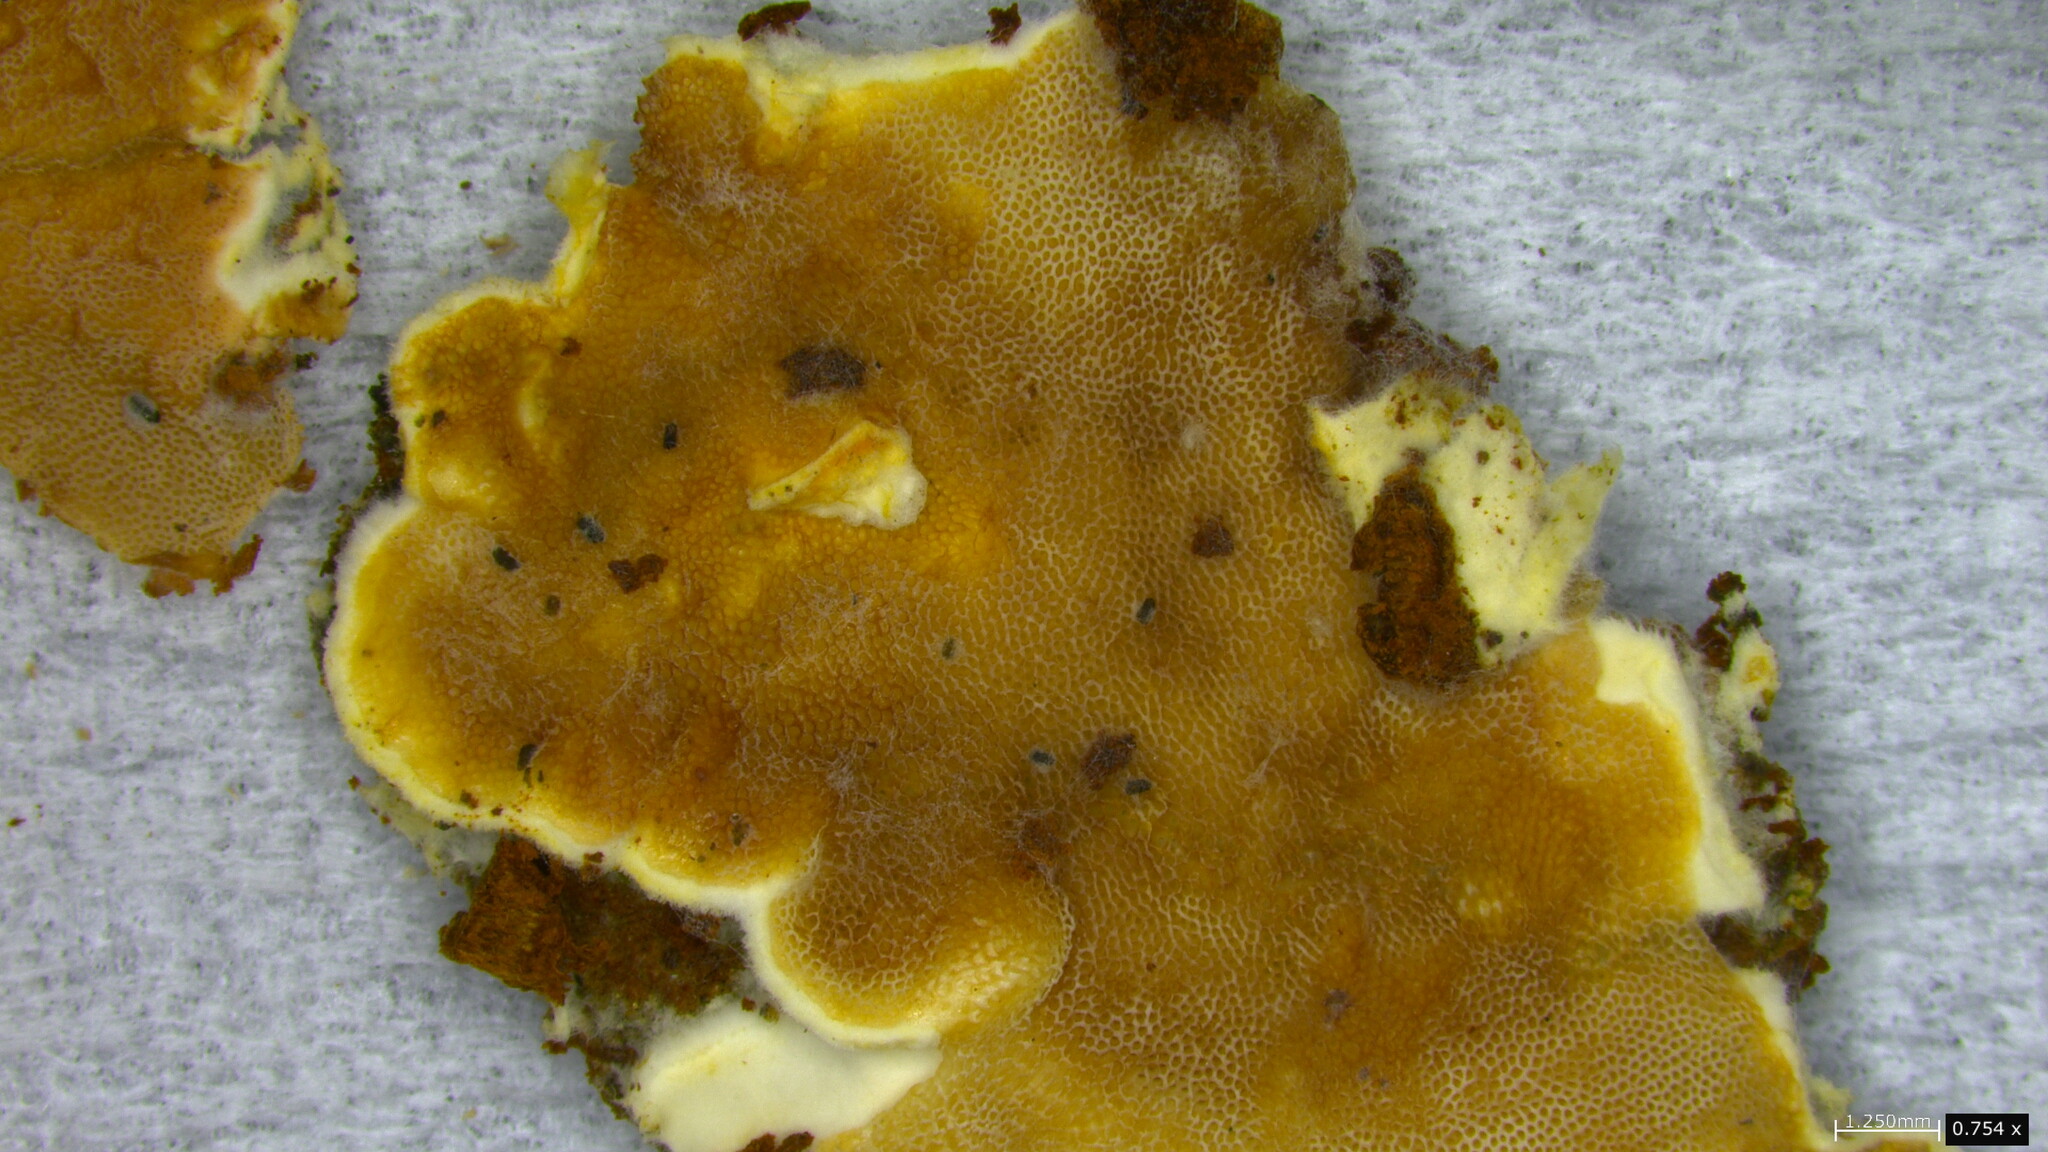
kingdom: Fungi
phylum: Basidiomycota
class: Agaricomycetes
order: Polyporales
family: Irpicaceae
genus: Vitreoporus
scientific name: Vitreoporus dichrous
